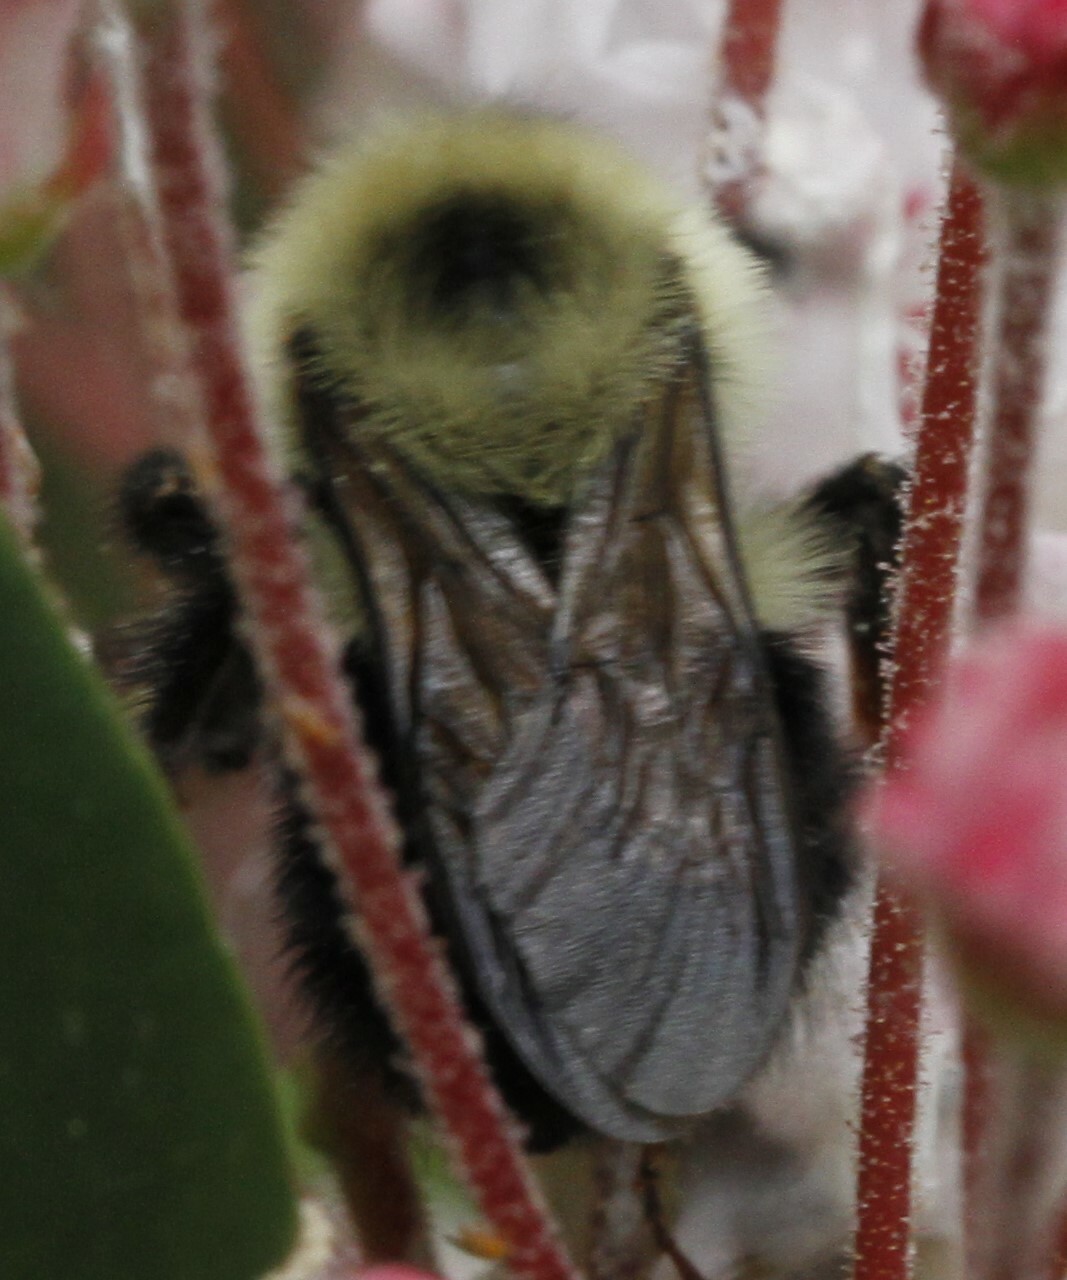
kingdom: Animalia
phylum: Arthropoda
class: Insecta
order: Hymenoptera
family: Apidae
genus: Bombus
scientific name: Bombus bimaculatus
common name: Two-spotted bumble bee
